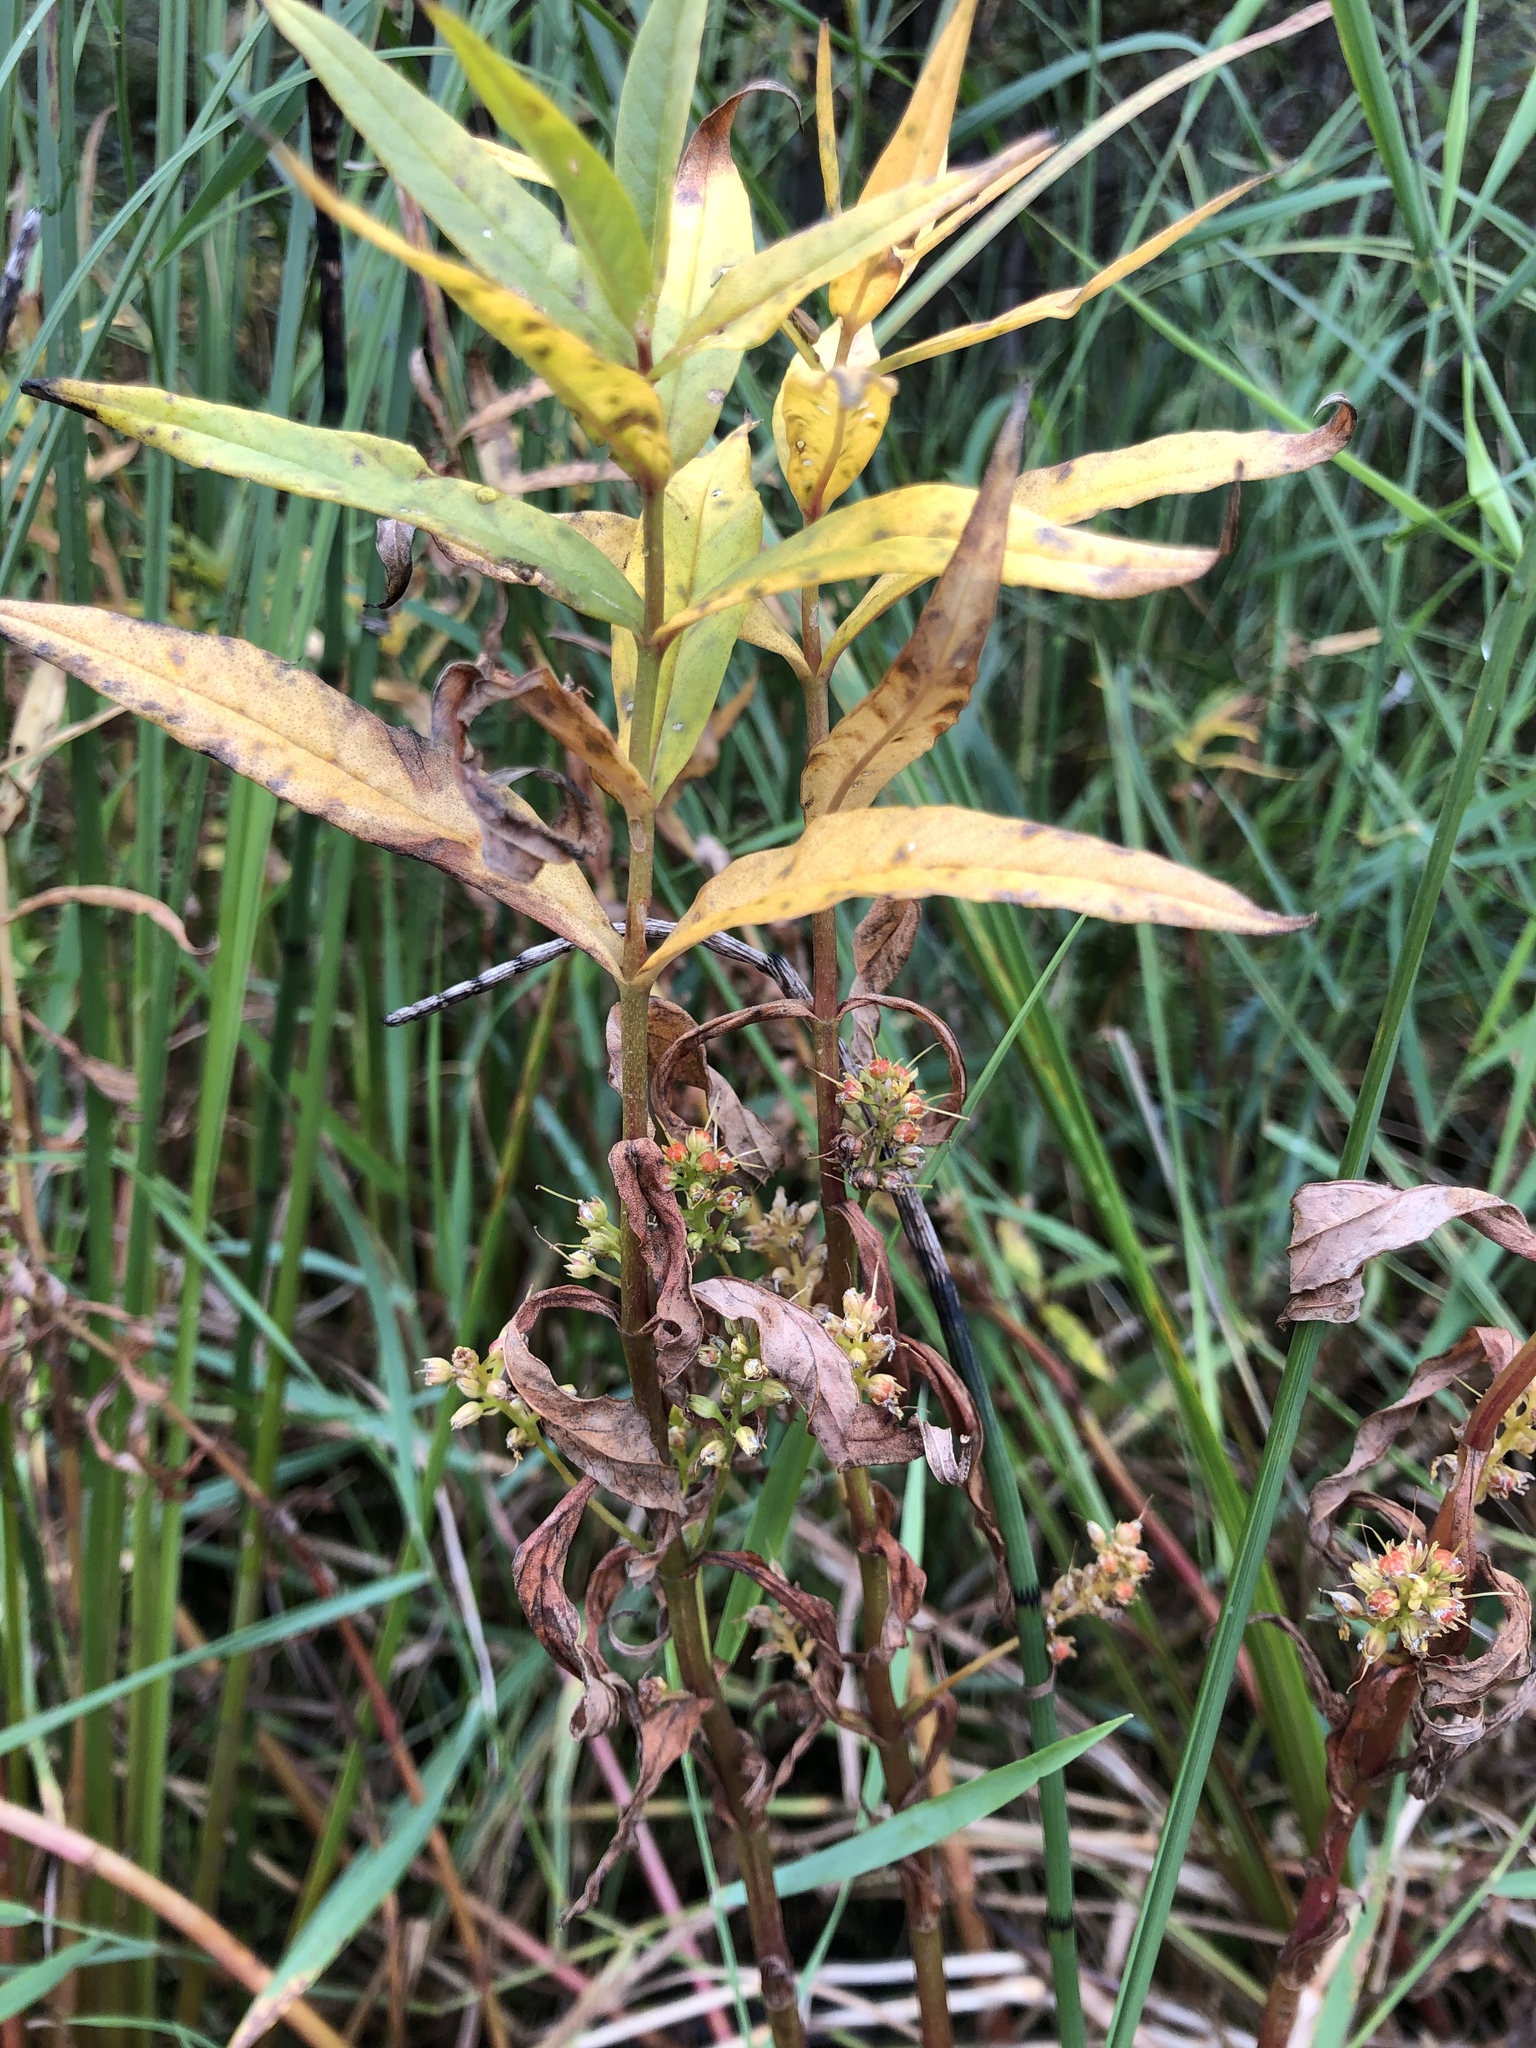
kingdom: Plantae
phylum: Tracheophyta
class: Magnoliopsida
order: Ericales
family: Primulaceae
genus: Lysimachia
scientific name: Lysimachia thyrsiflora
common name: Tufted loosestrife
